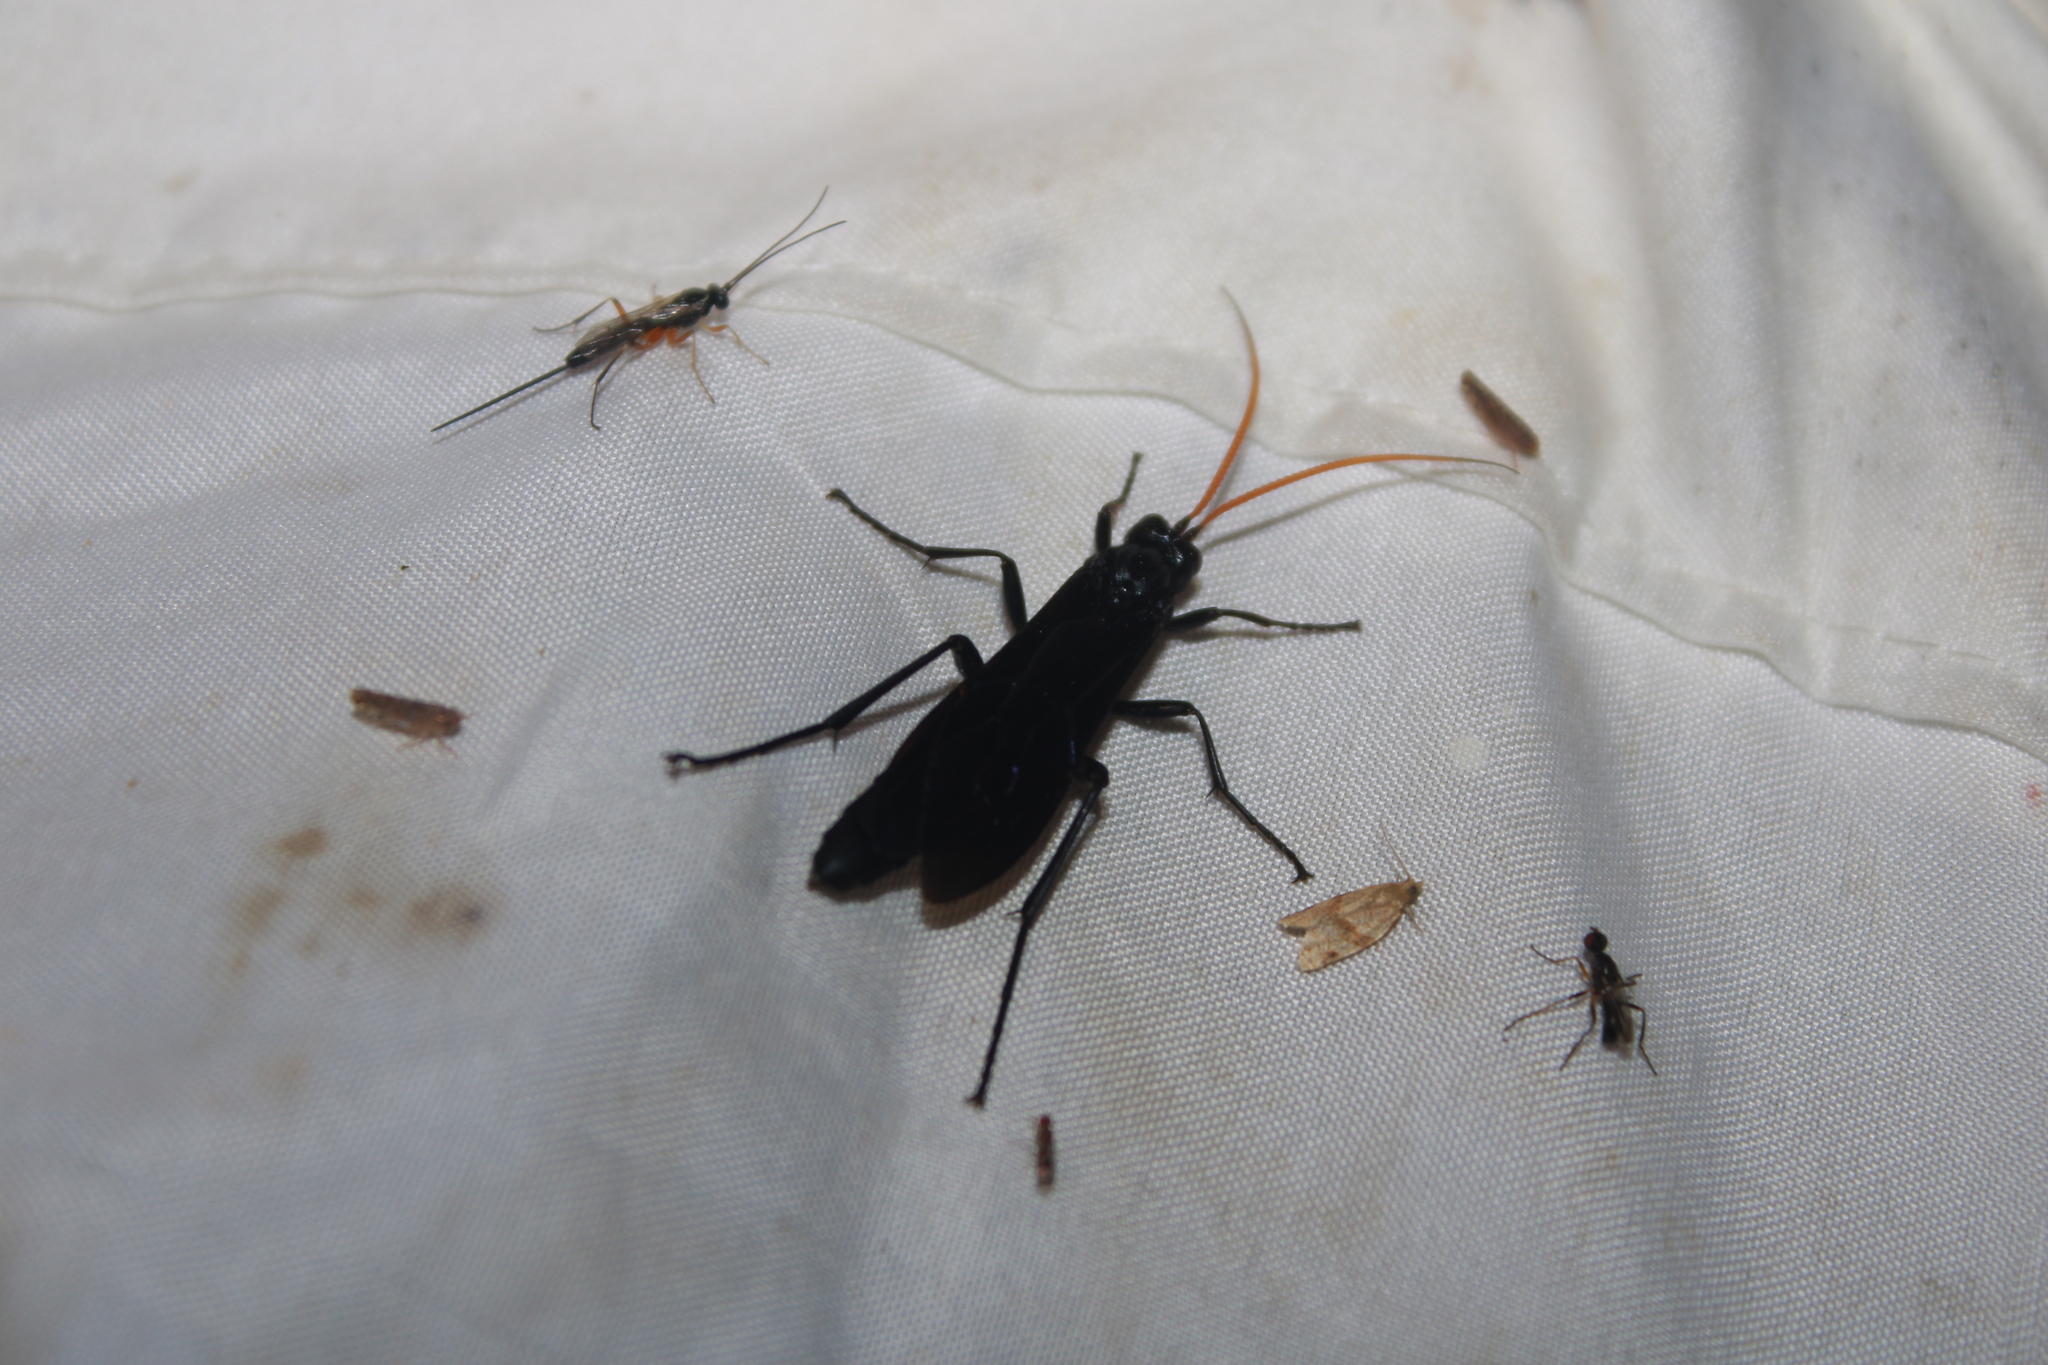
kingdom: Animalia
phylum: Arthropoda
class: Insecta
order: Hymenoptera
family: Ichneumonidae
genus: Gnamptopelta
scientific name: Gnamptopelta obsidianator
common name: Bent-shielded besieger wasp
